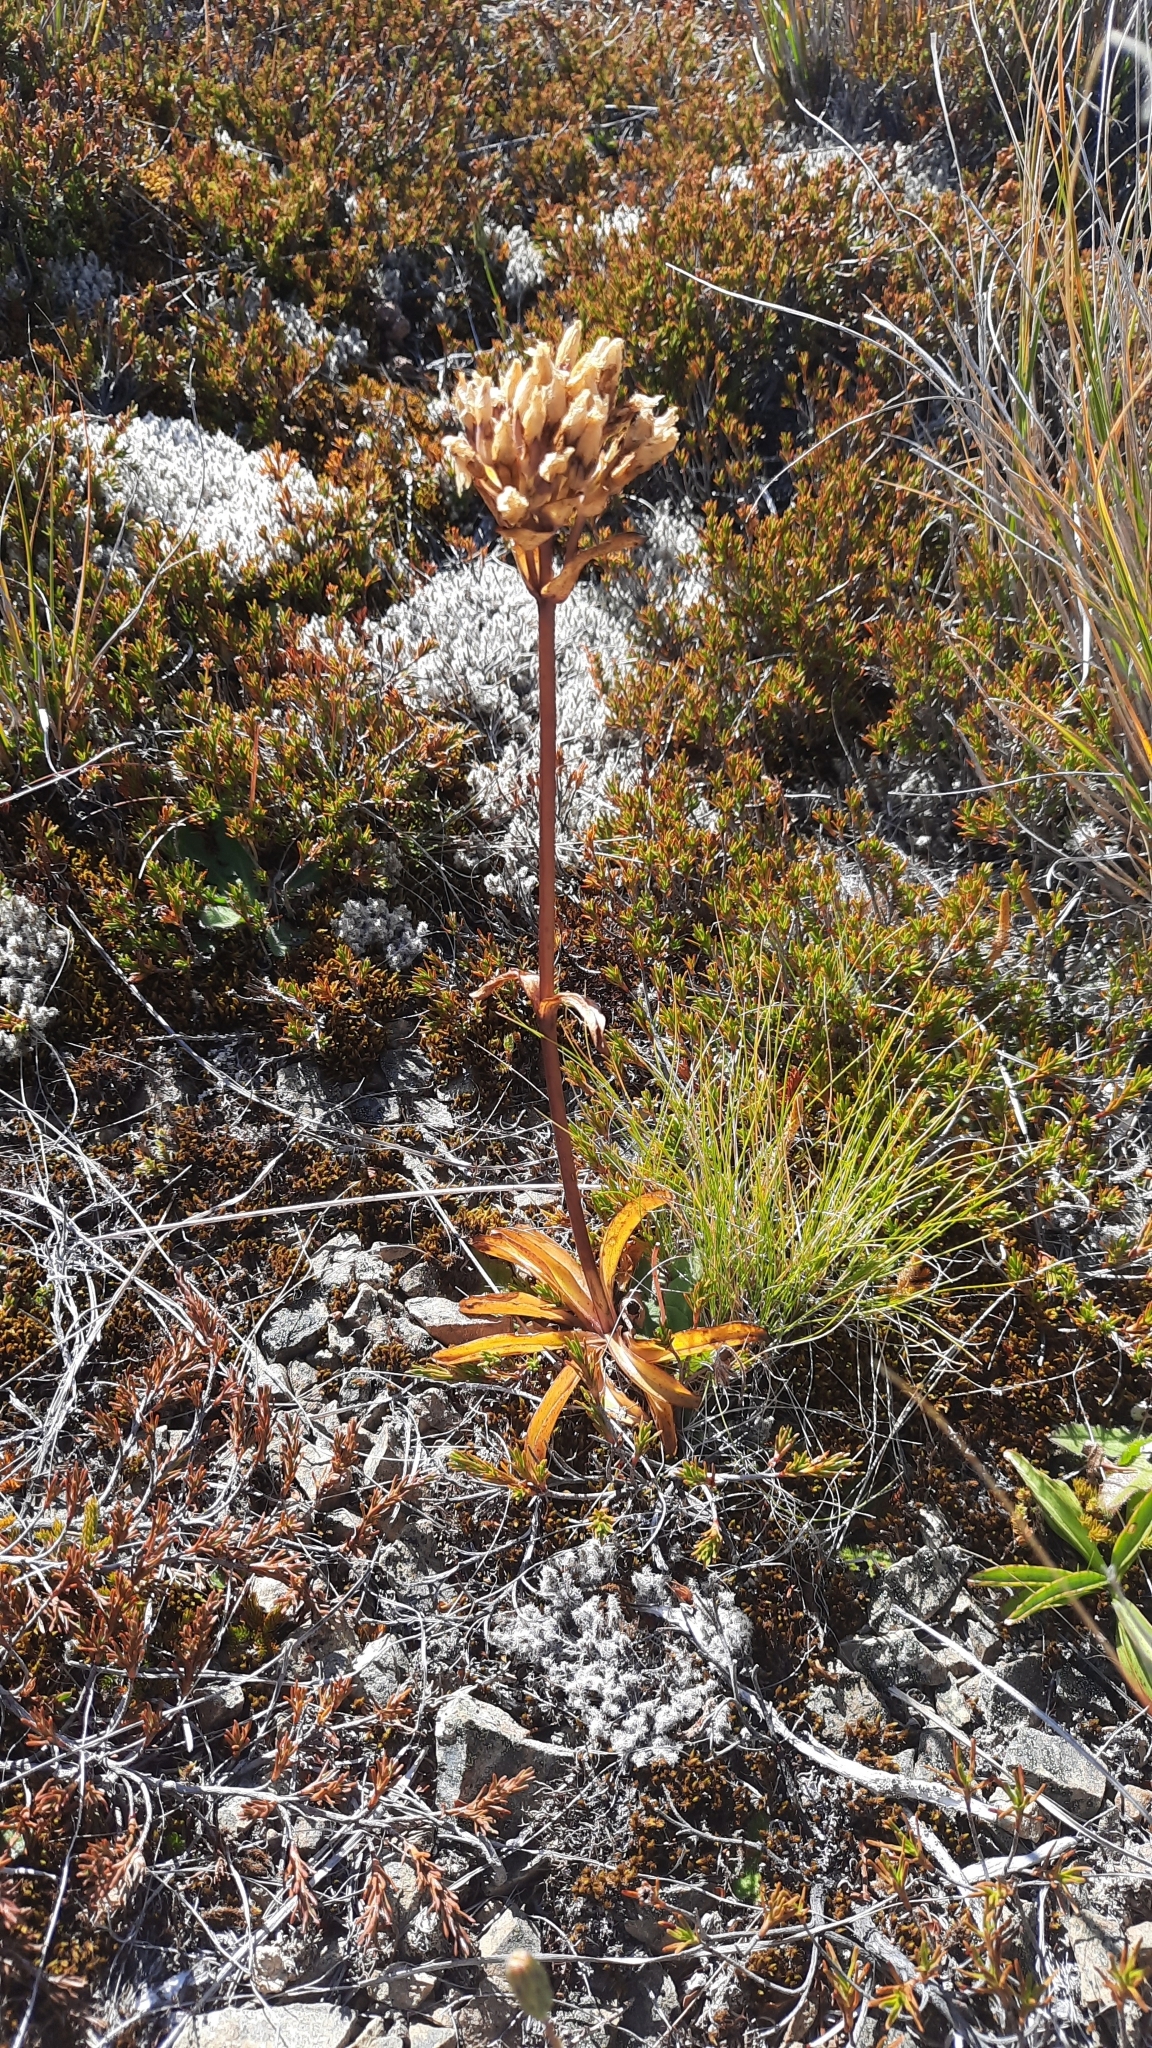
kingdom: Plantae
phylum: Tracheophyta
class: Magnoliopsida
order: Gentianales
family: Gentianaceae
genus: Gentianella
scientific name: Gentianella corymbifera
